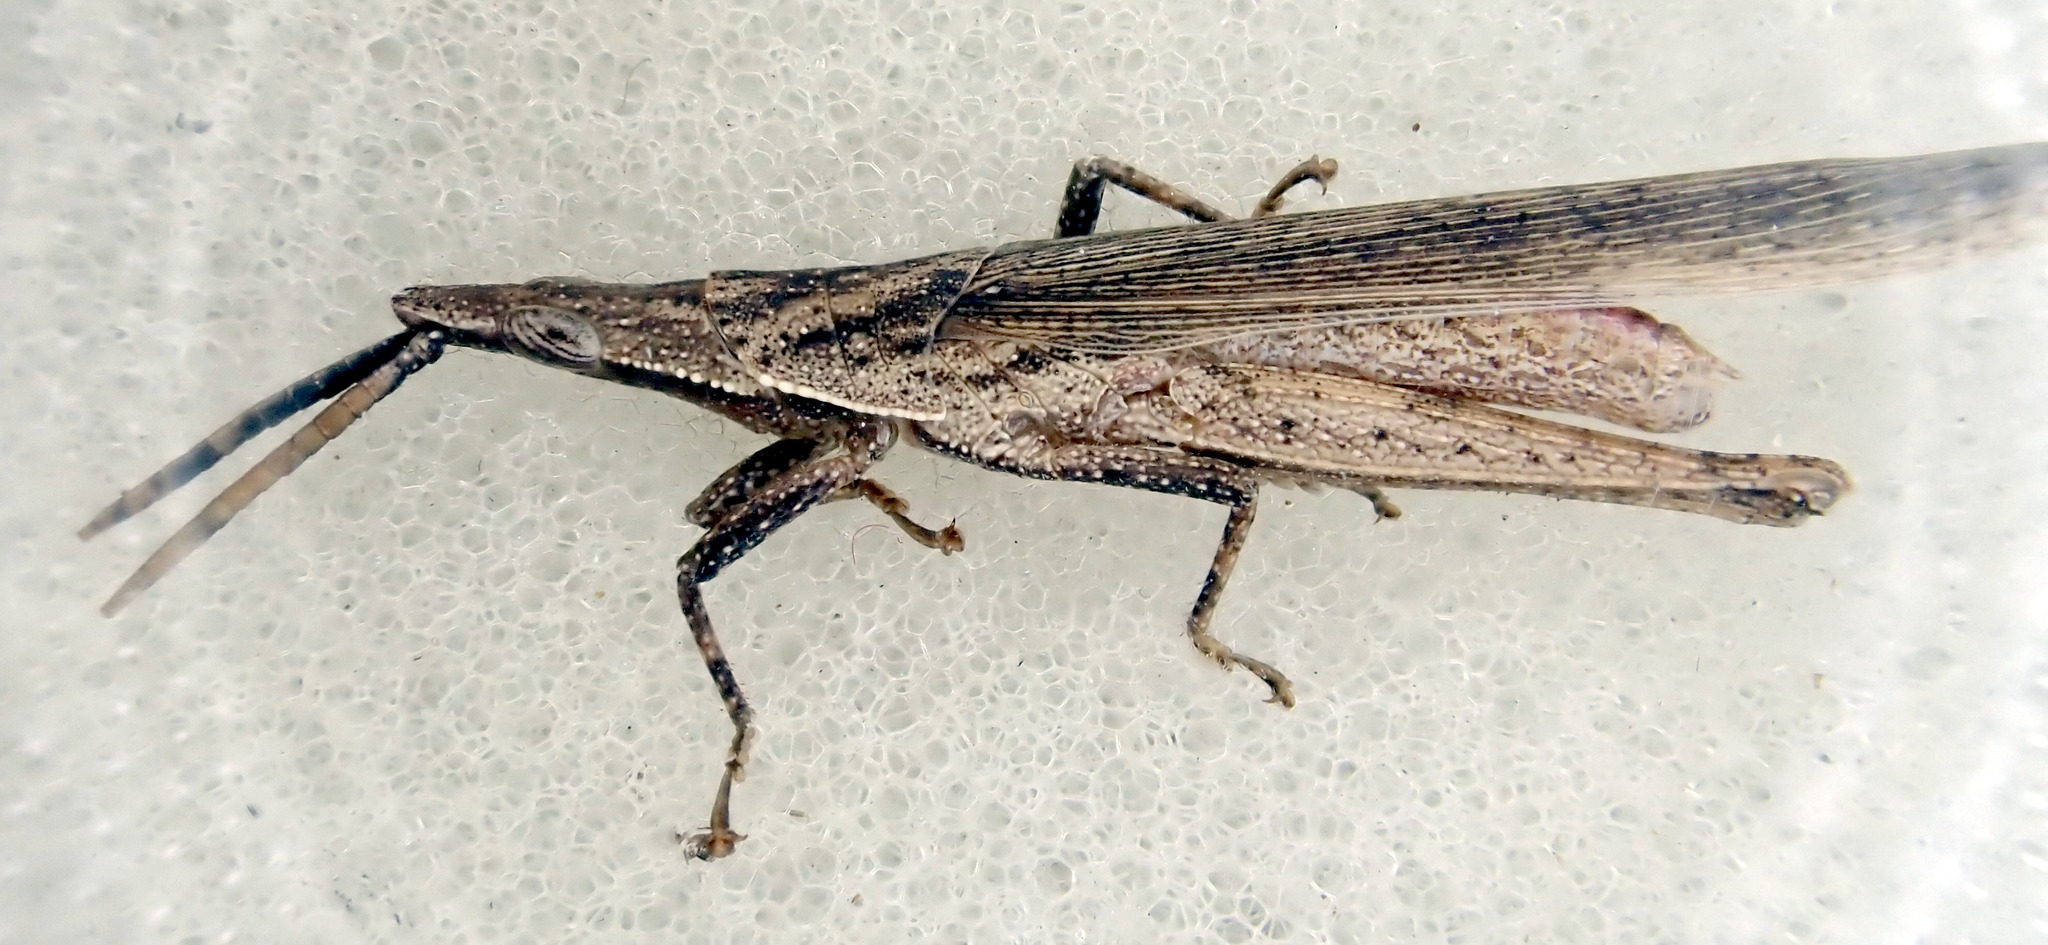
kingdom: Animalia
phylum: Arthropoda
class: Insecta
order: Orthoptera
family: Pyrgomorphidae
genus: Atractomorpha
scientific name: Atractomorpha similis
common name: Northern grass pyrgomorph
